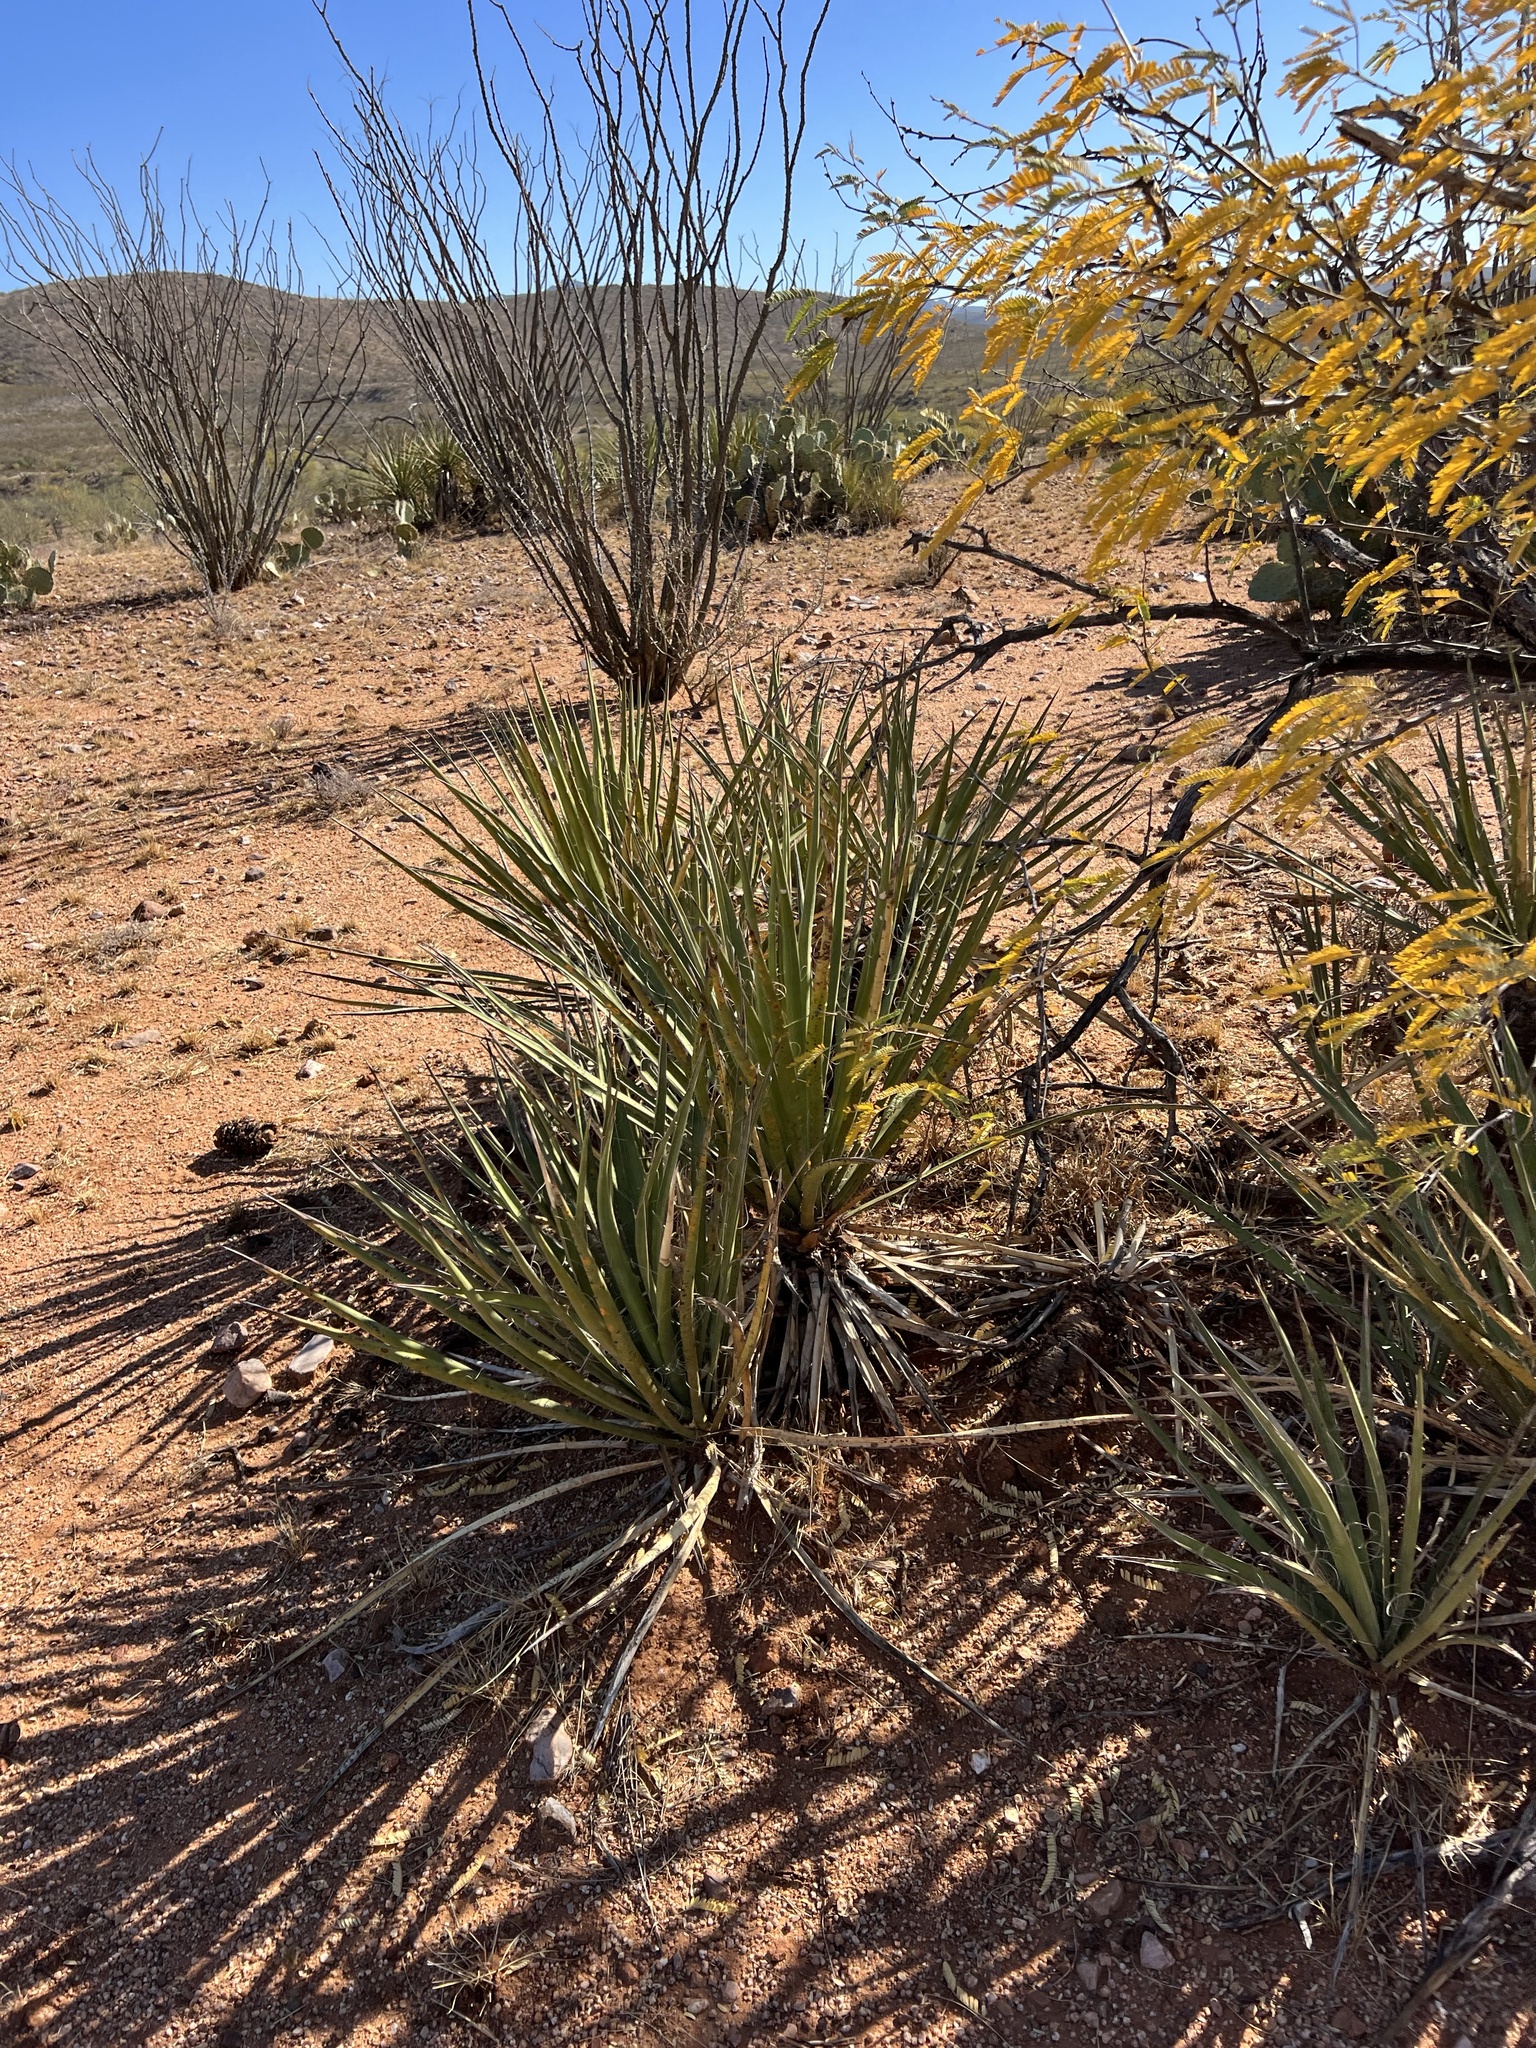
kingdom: Plantae
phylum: Tracheophyta
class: Liliopsida
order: Asparagales
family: Asparagaceae
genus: Yucca
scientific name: Yucca baccata
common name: Banana yucca
